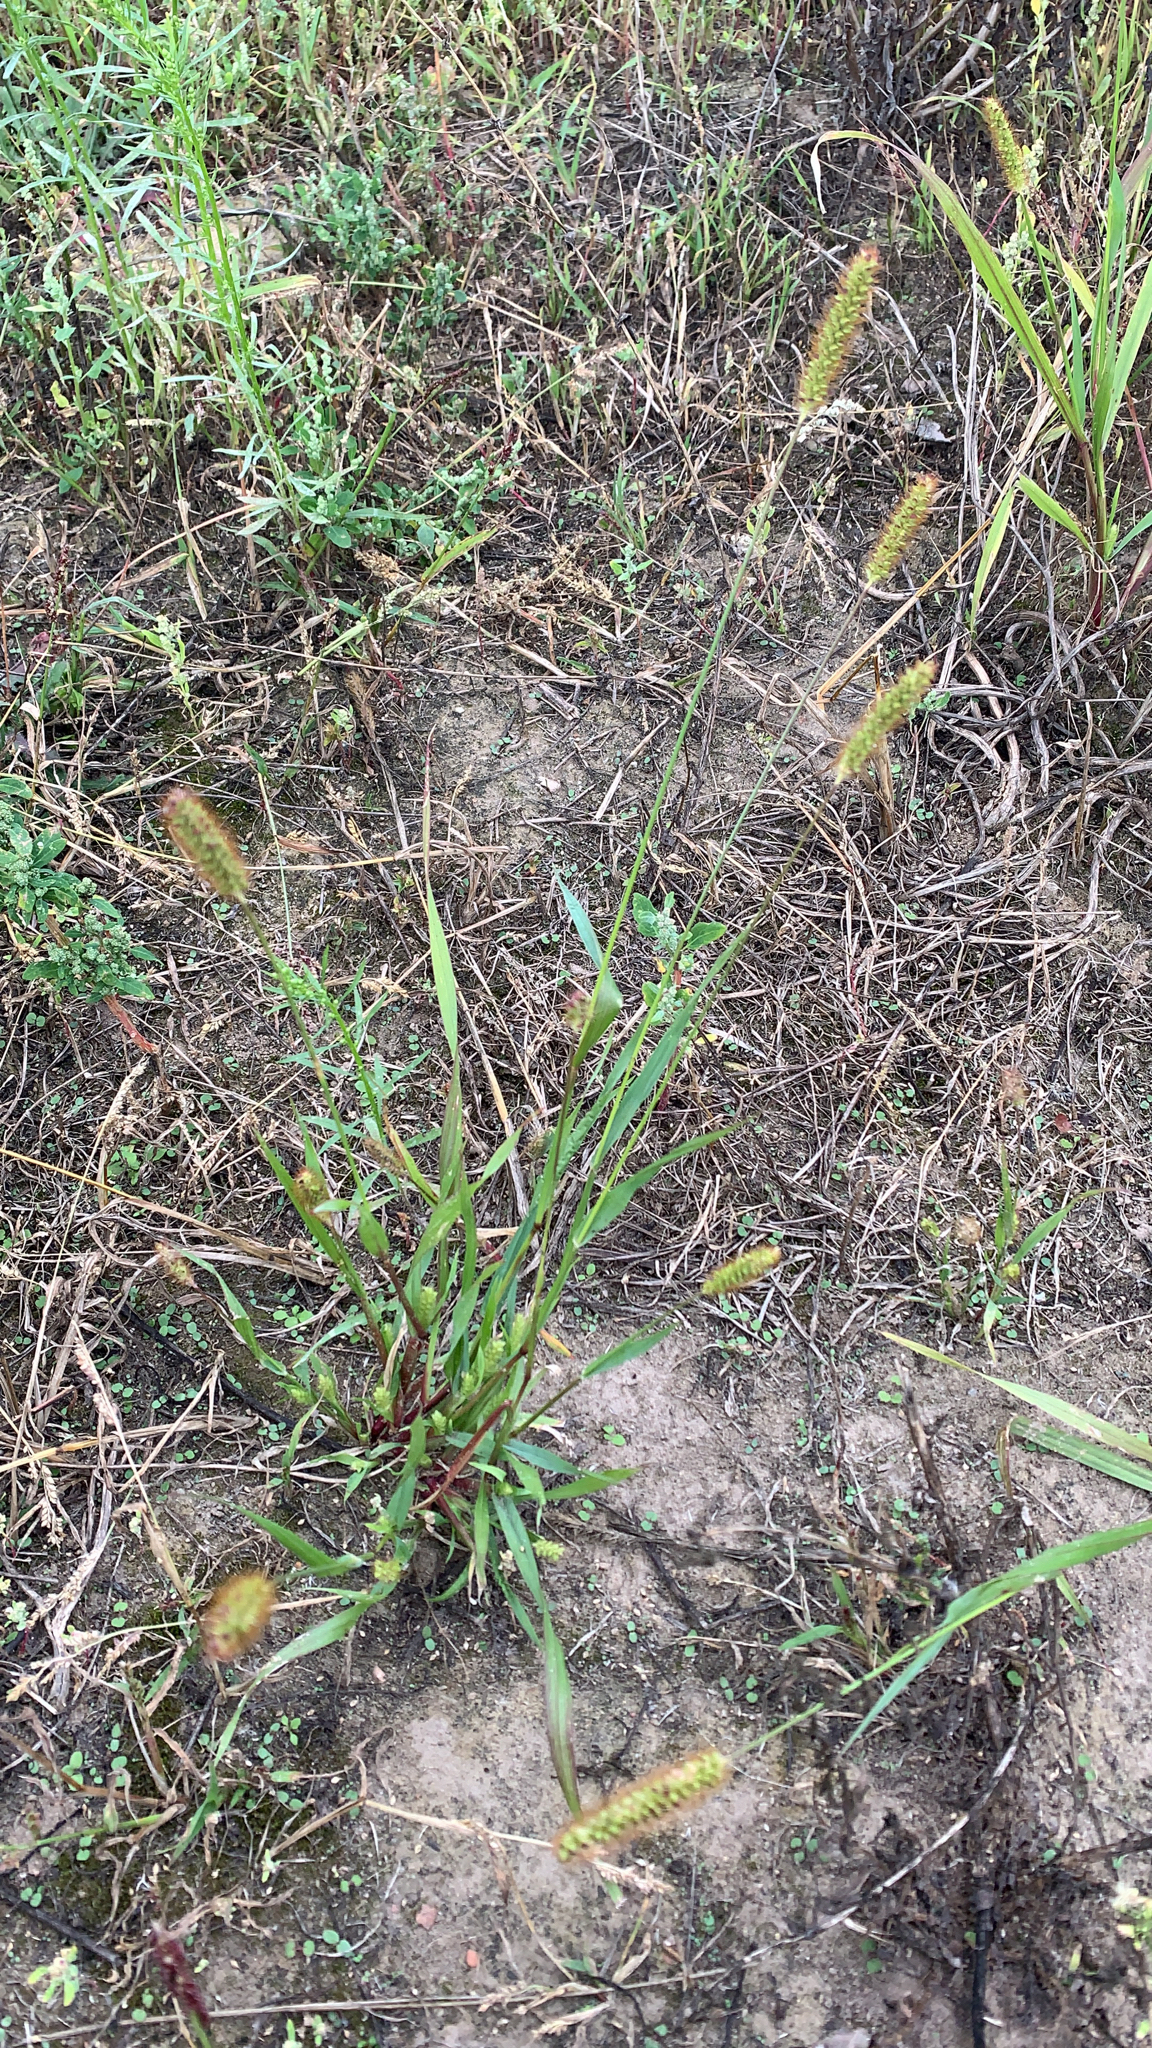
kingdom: Plantae
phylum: Tracheophyta
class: Liliopsida
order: Poales
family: Poaceae
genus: Setaria
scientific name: Setaria pumila
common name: Yellow bristle-grass
